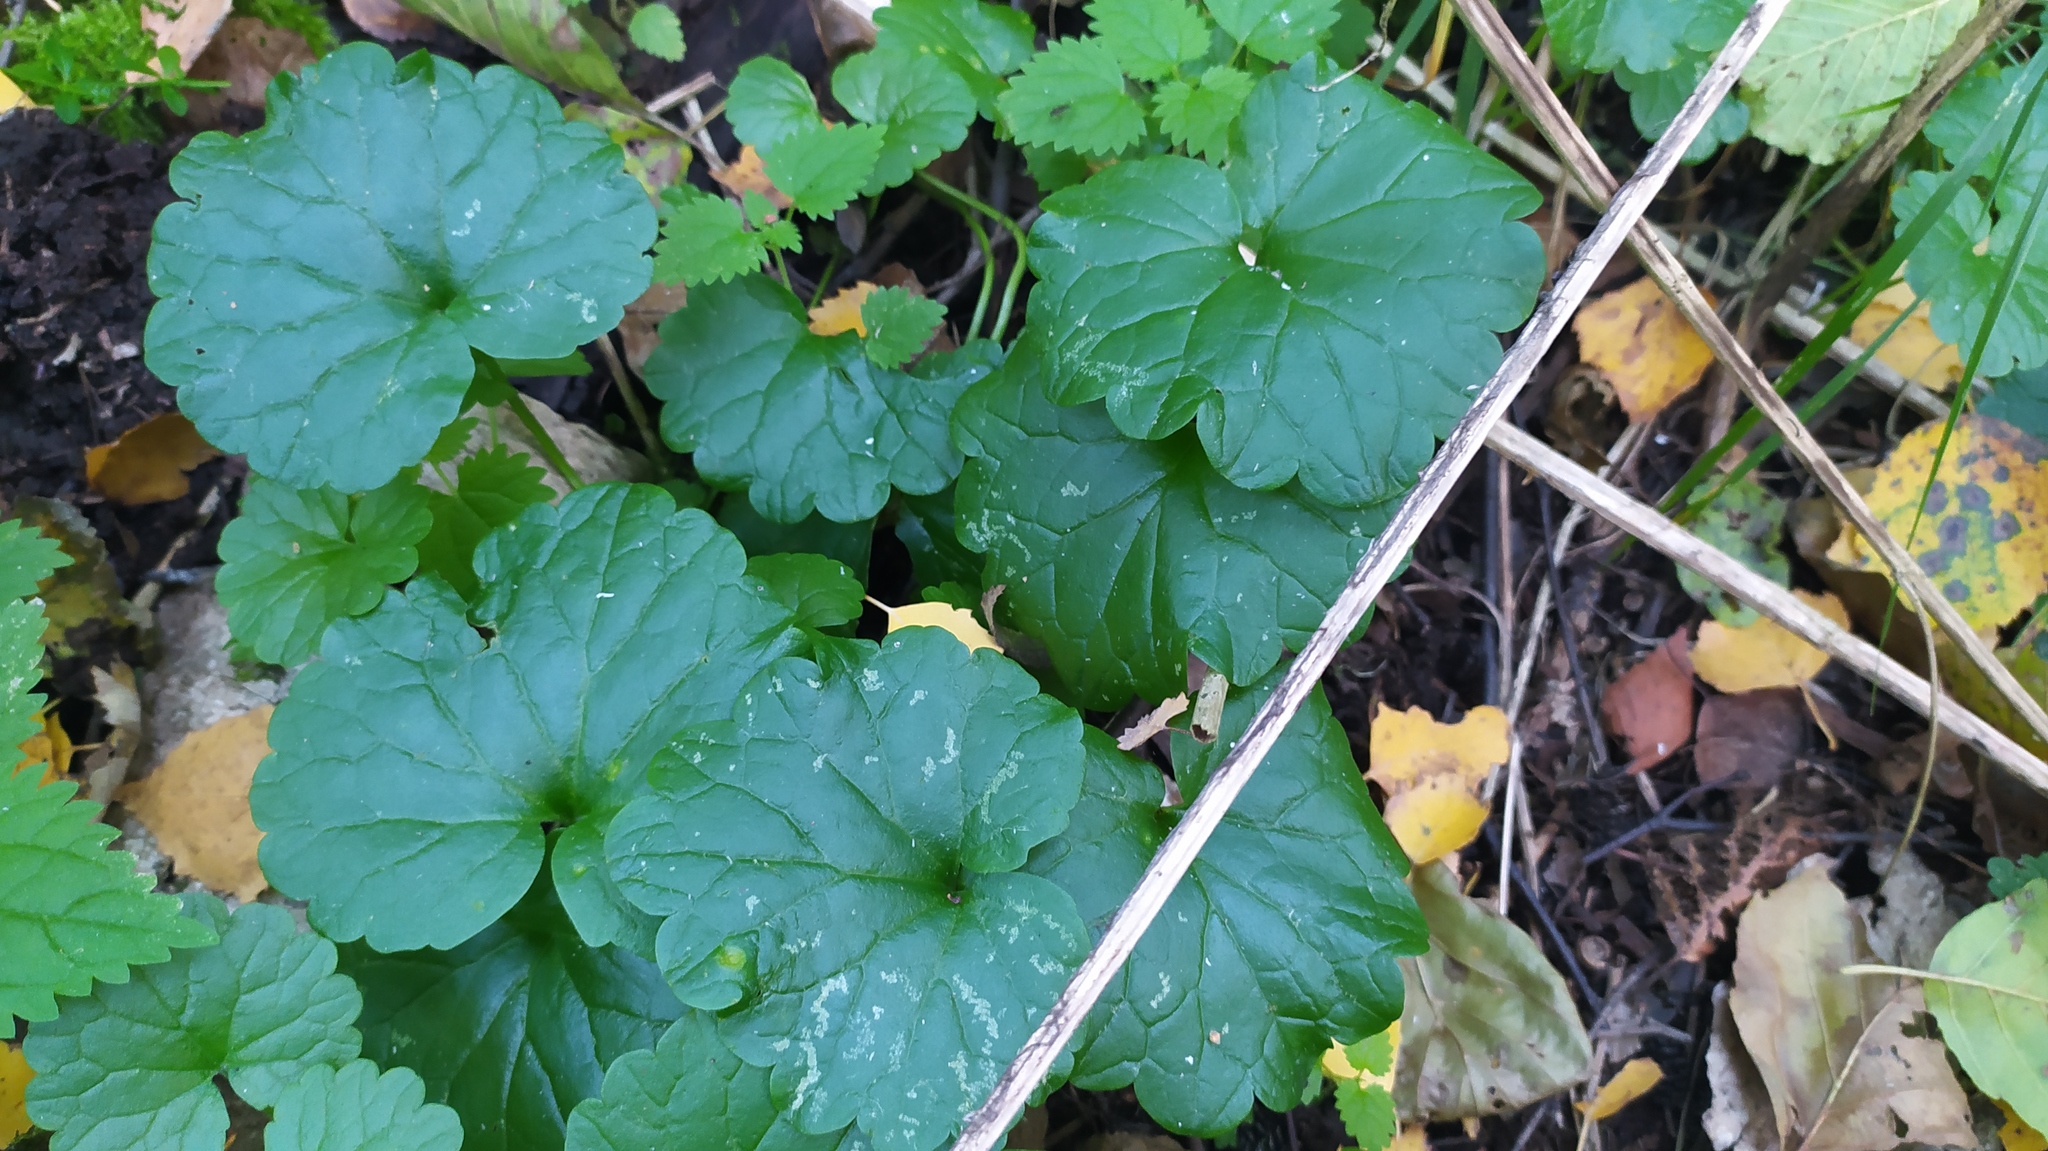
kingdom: Plantae
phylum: Tracheophyta
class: Magnoliopsida
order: Lamiales
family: Lamiaceae
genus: Glechoma
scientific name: Glechoma hederacea
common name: Ground ivy
